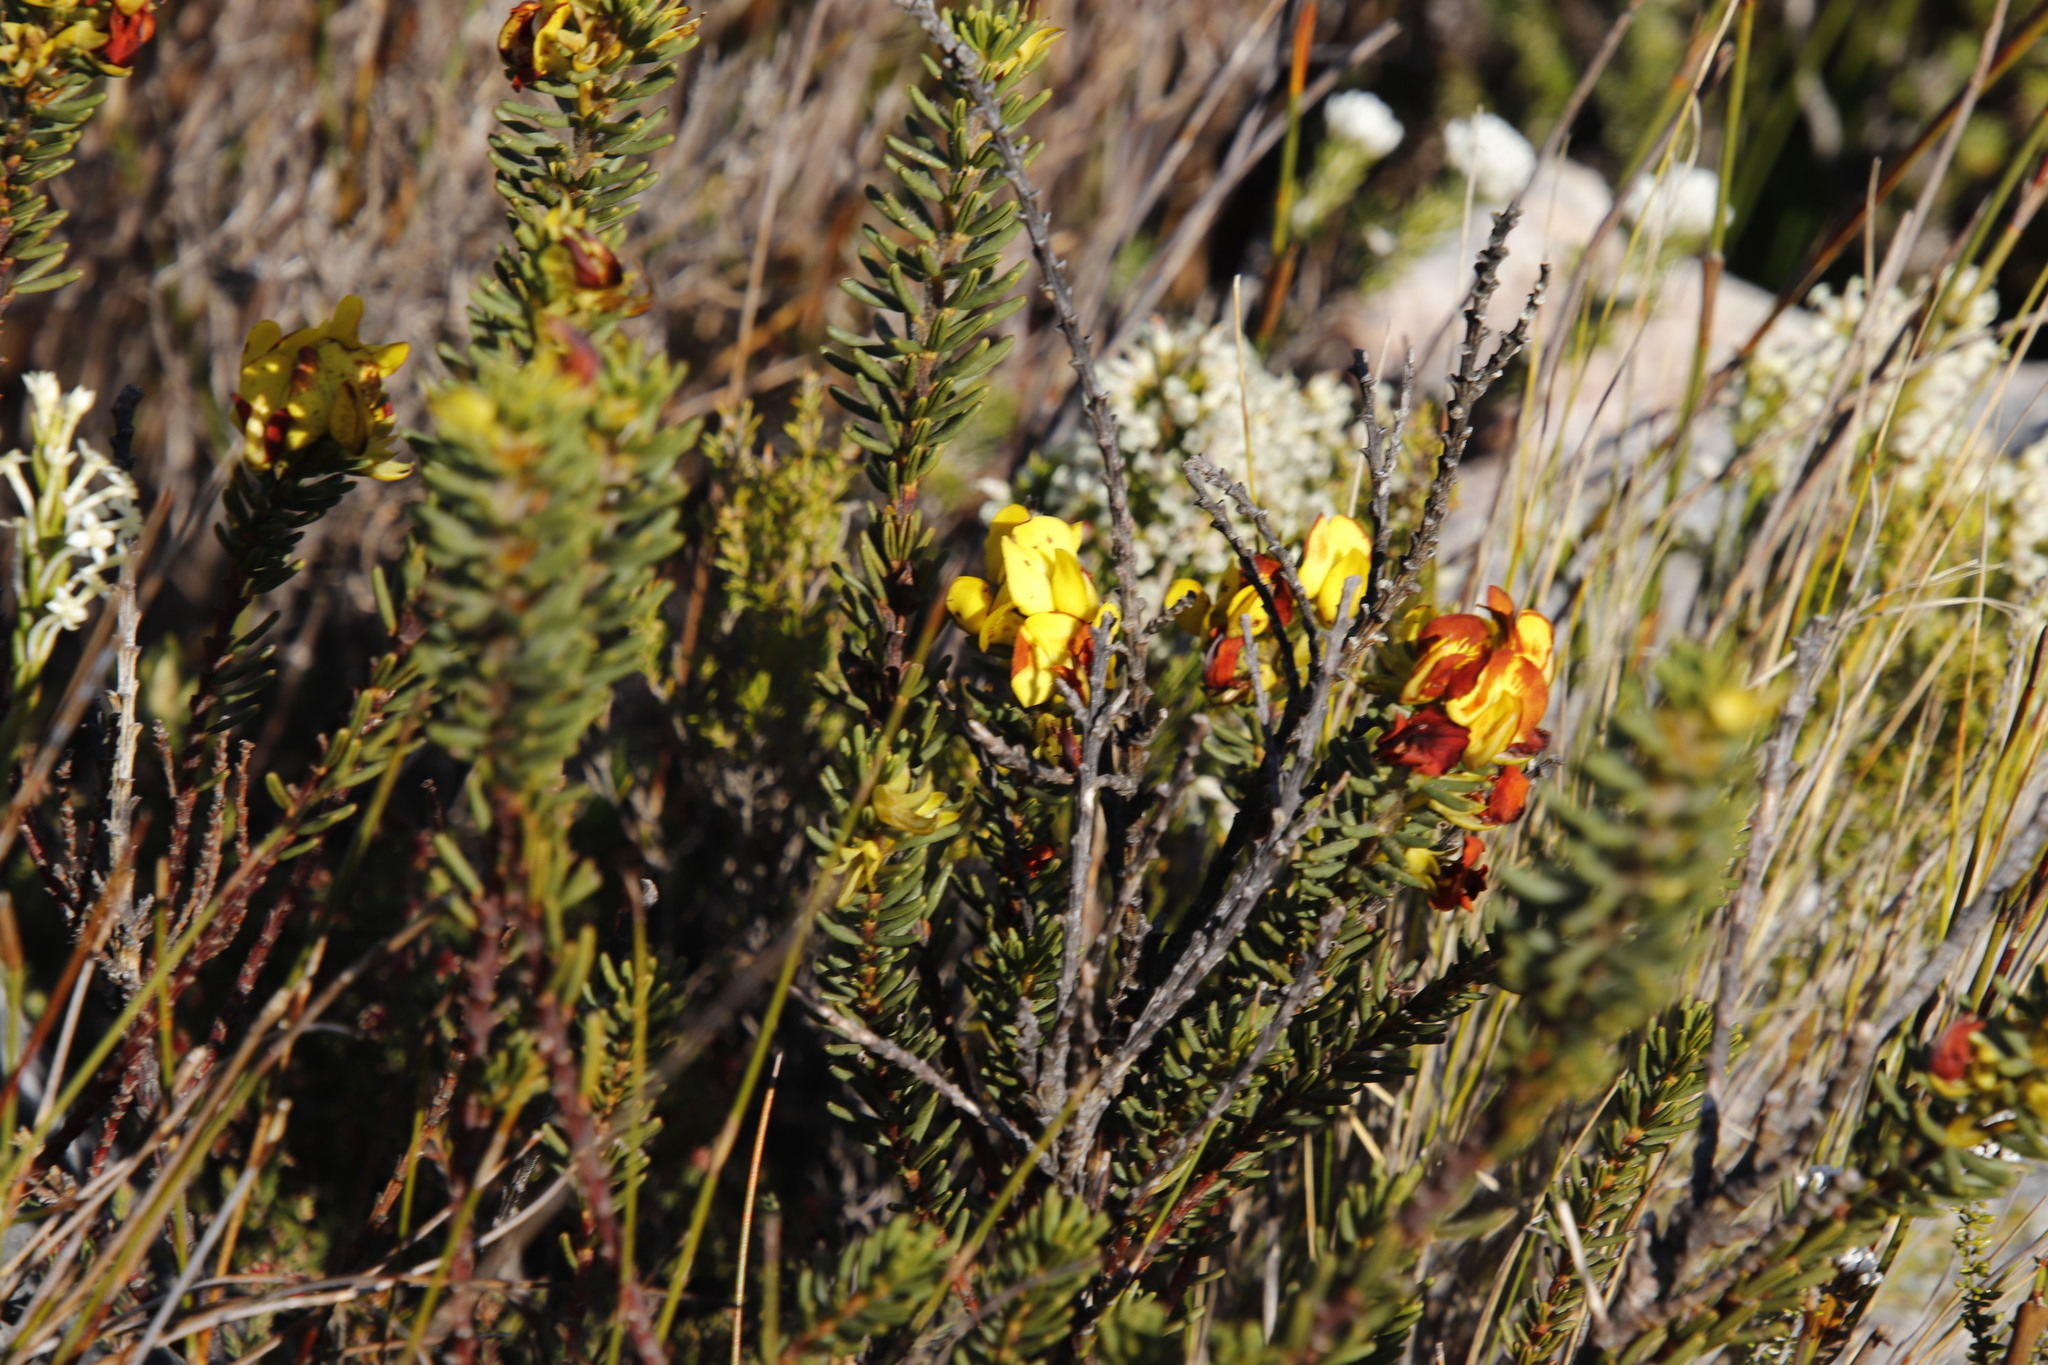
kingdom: Plantae
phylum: Tracheophyta
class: Magnoliopsida
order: Fabales
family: Fabaceae
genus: Cyclopia
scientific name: Cyclopia galioides
